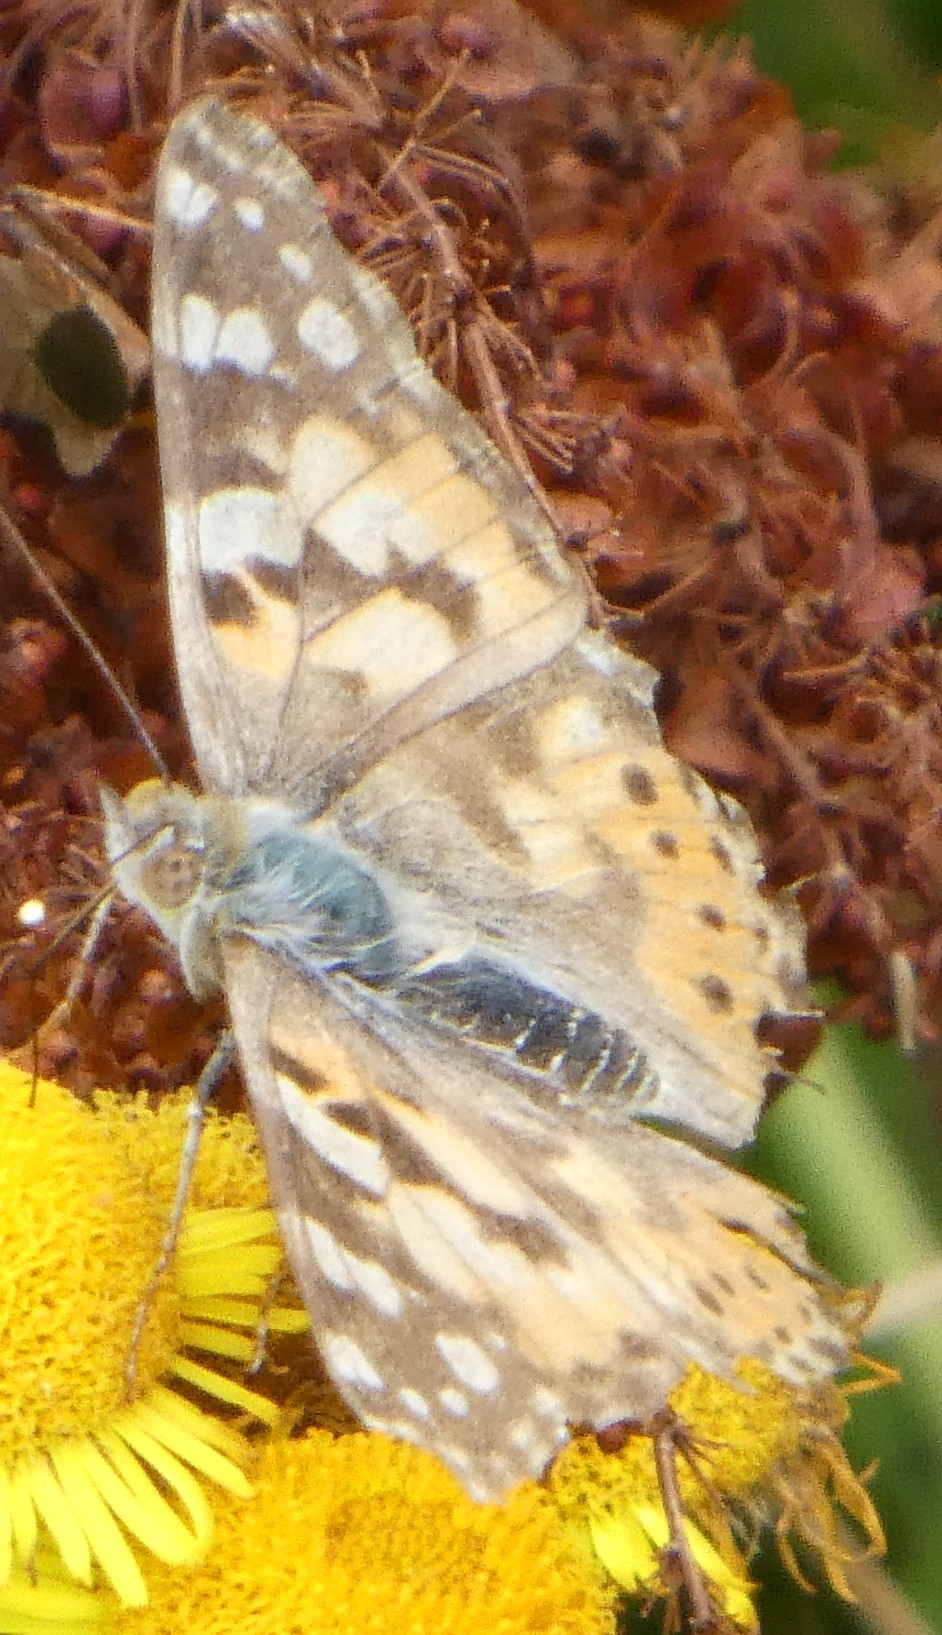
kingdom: Animalia
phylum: Arthropoda
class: Insecta
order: Lepidoptera
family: Nymphalidae
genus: Vanessa
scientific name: Vanessa cardui
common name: Painted lady
